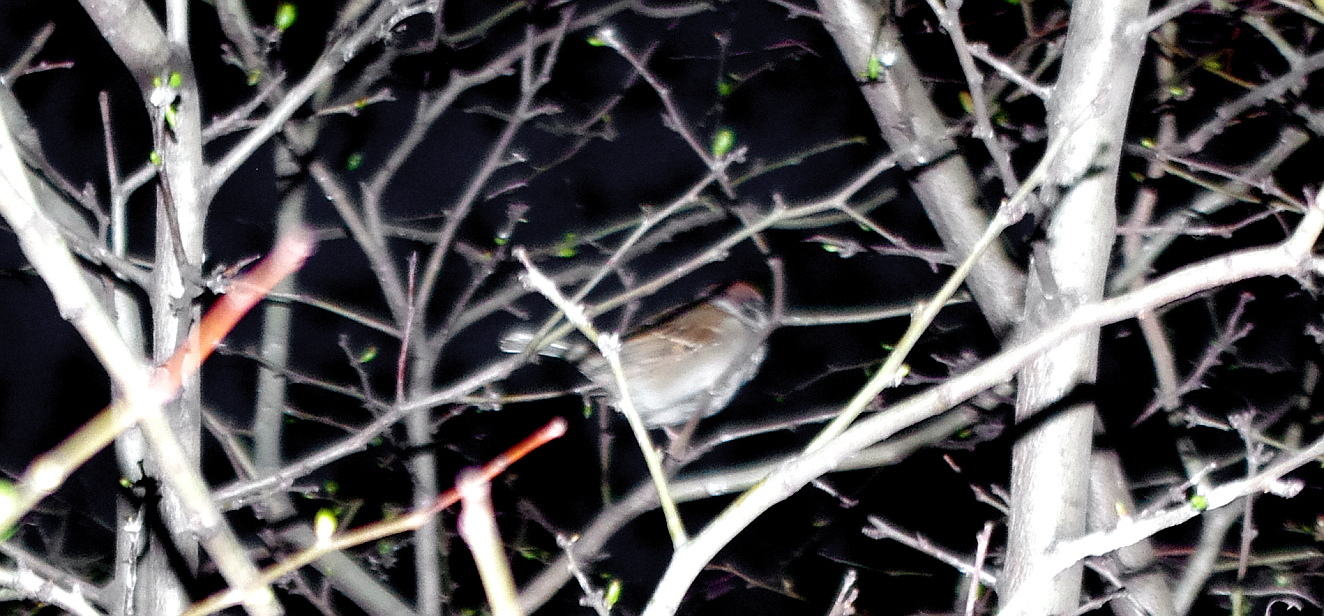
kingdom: Animalia
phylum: Chordata
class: Aves
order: Passeriformes
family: Passeridae
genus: Passer
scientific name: Passer montanus
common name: Eurasian tree sparrow
